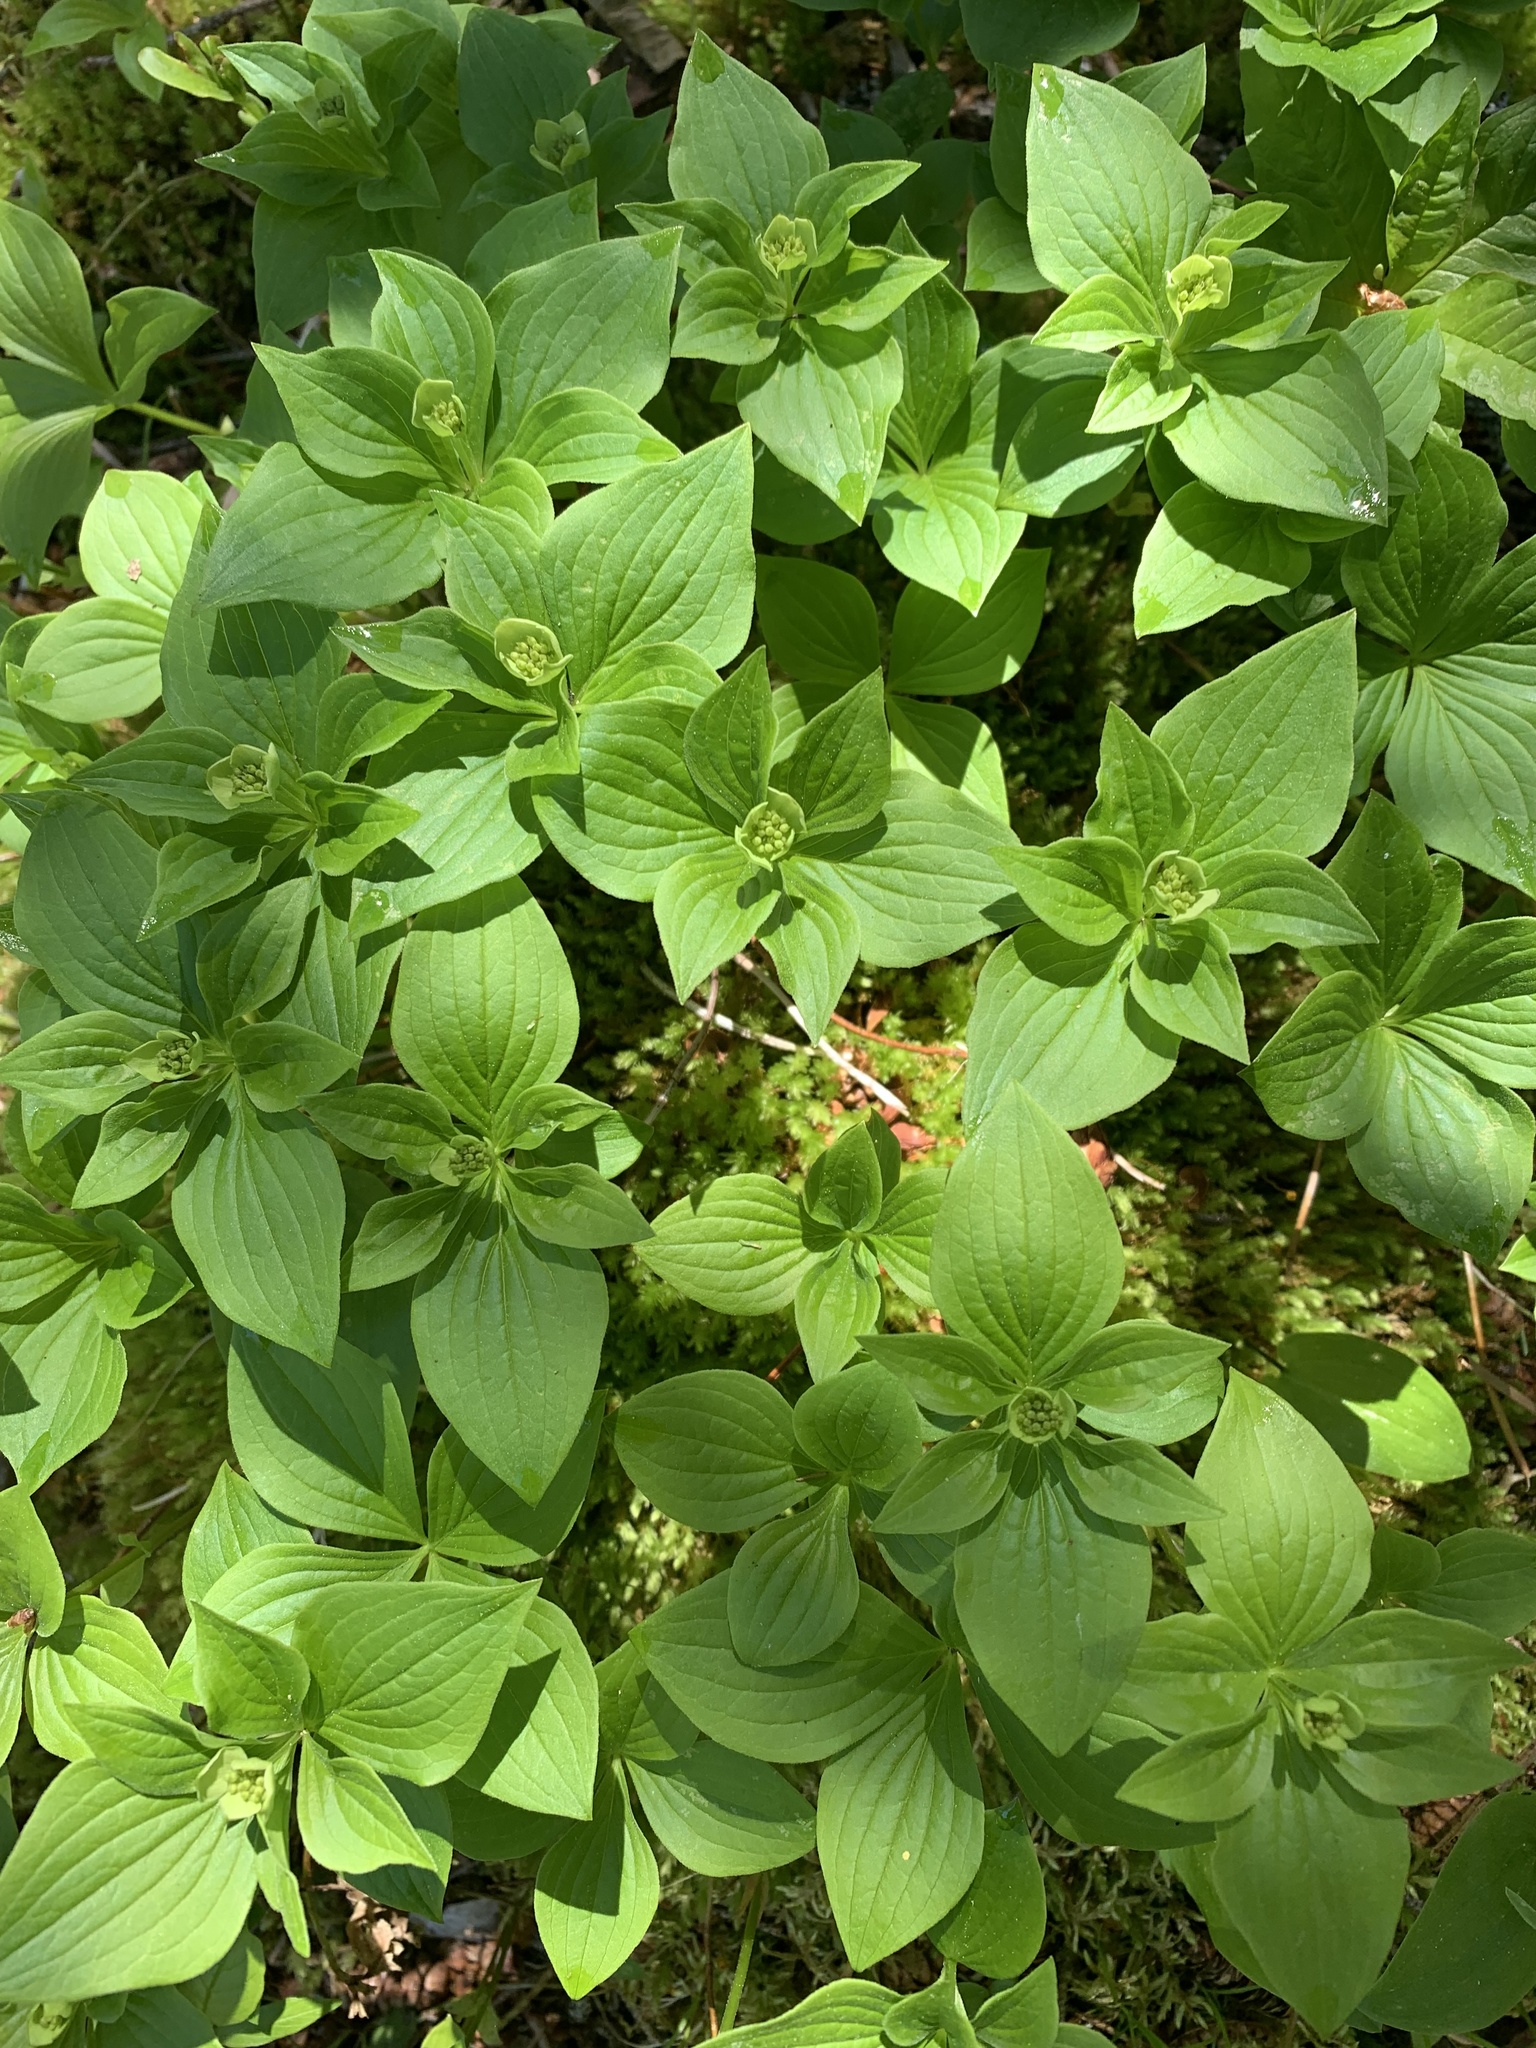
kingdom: Plantae
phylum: Tracheophyta
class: Magnoliopsida
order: Cornales
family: Cornaceae
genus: Cornus
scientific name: Cornus canadensis
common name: Creeping dogwood
